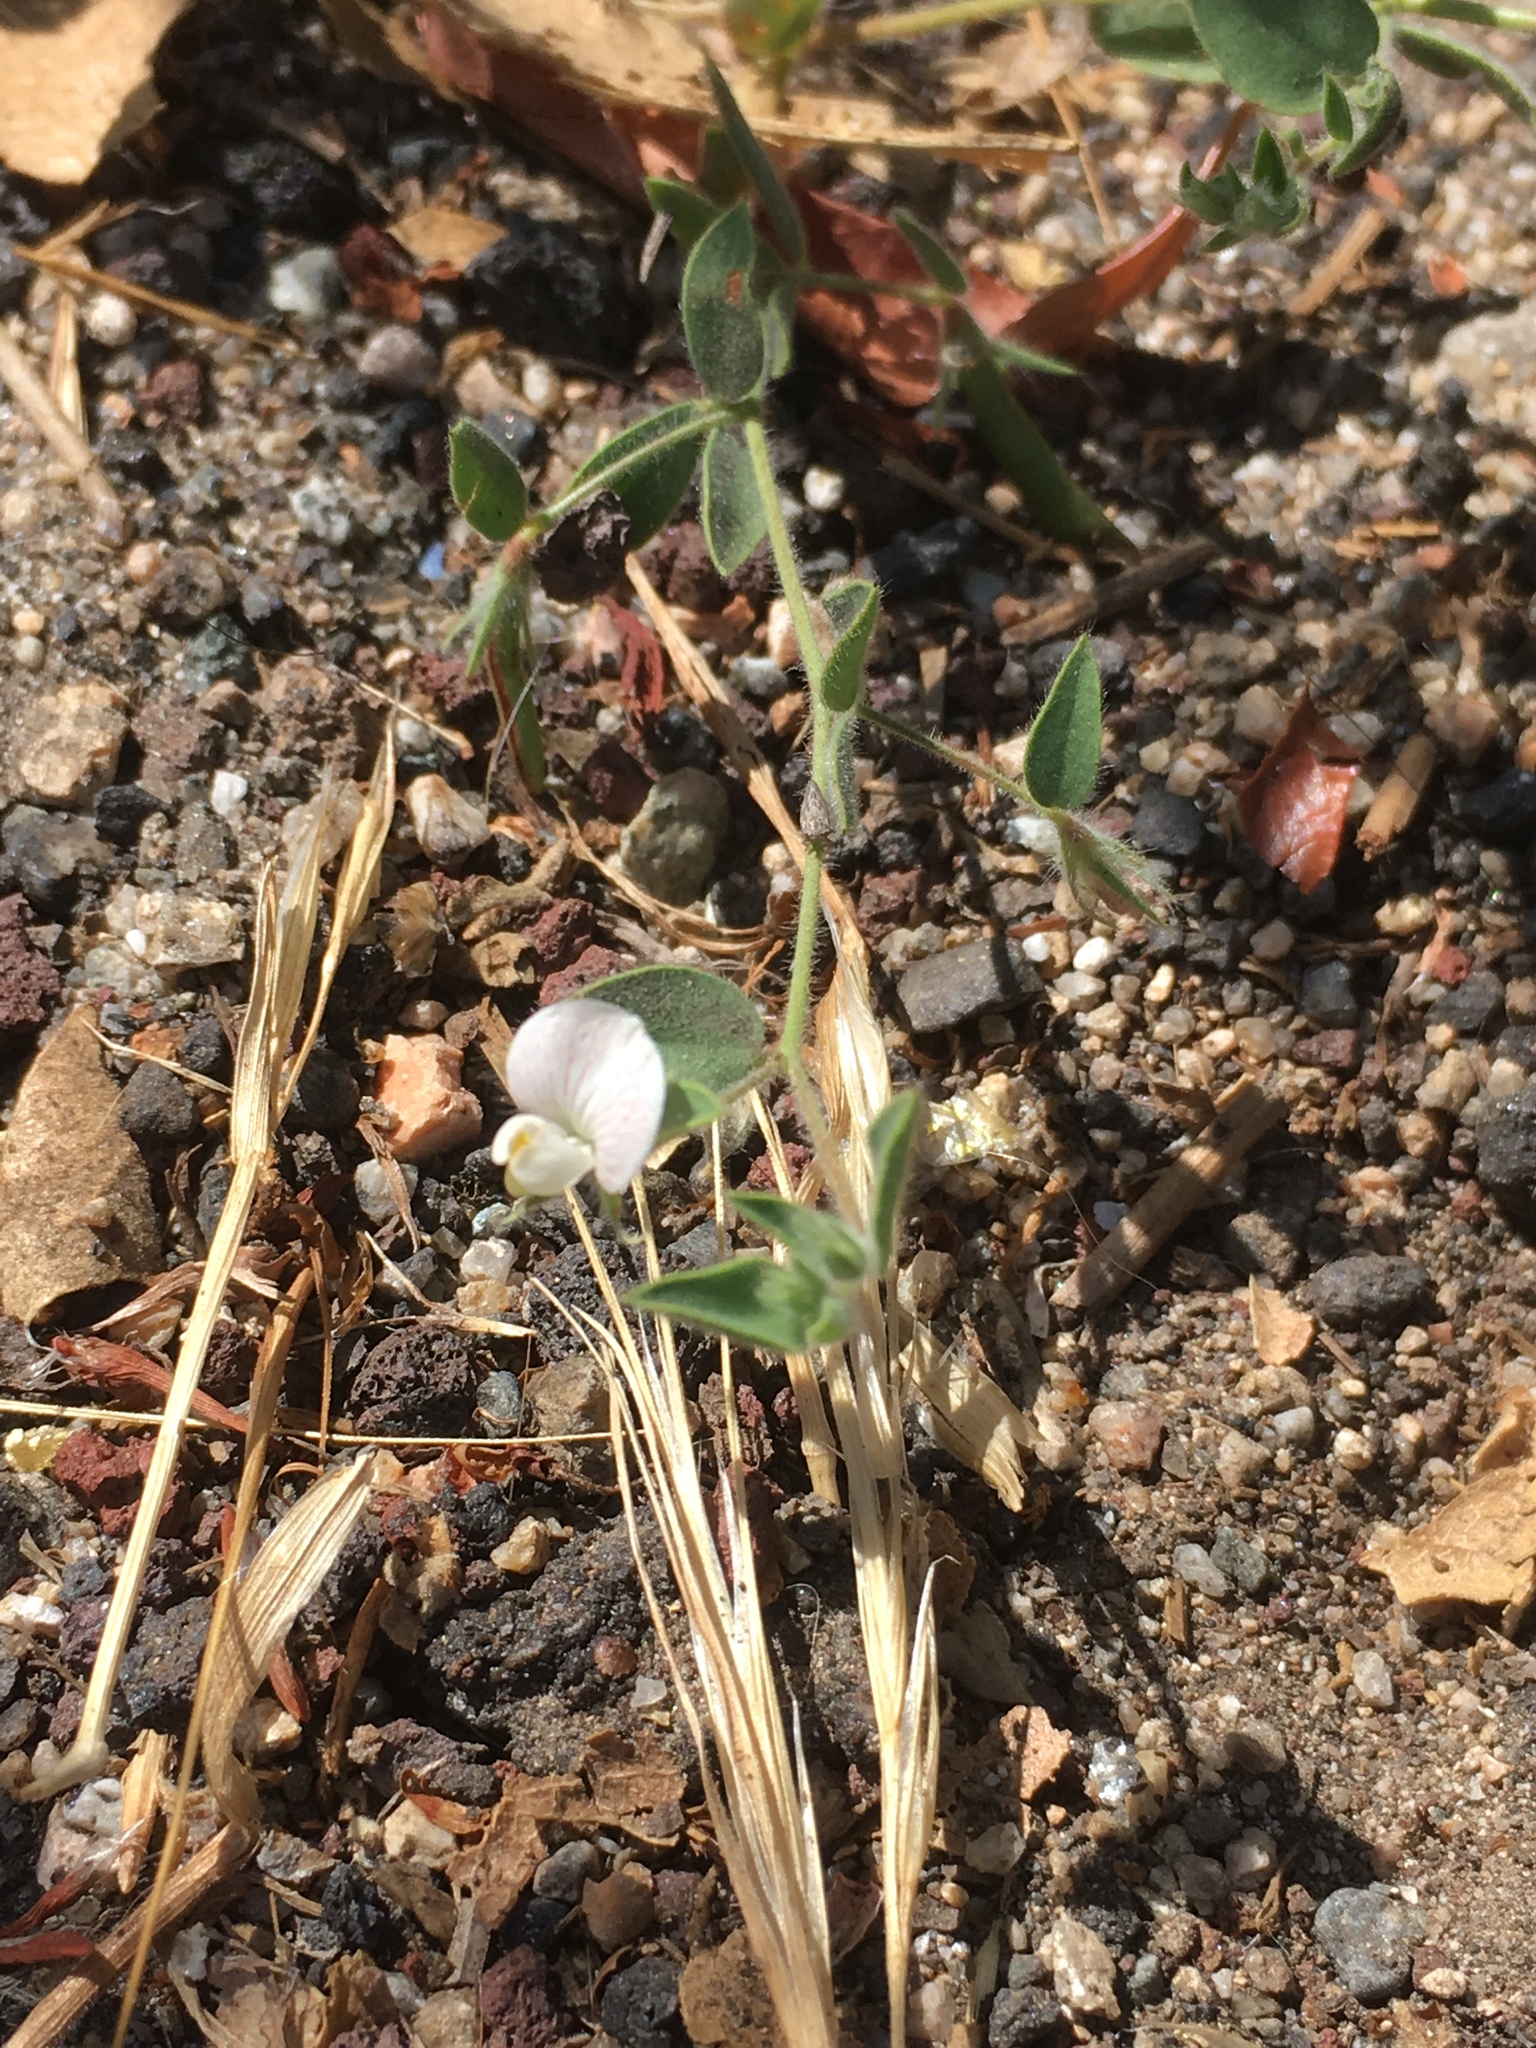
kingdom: Plantae
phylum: Tracheophyta
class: Magnoliopsida
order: Fabales
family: Fabaceae
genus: Acmispon
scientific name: Acmispon americanus
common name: American bird's-foot trefoil
